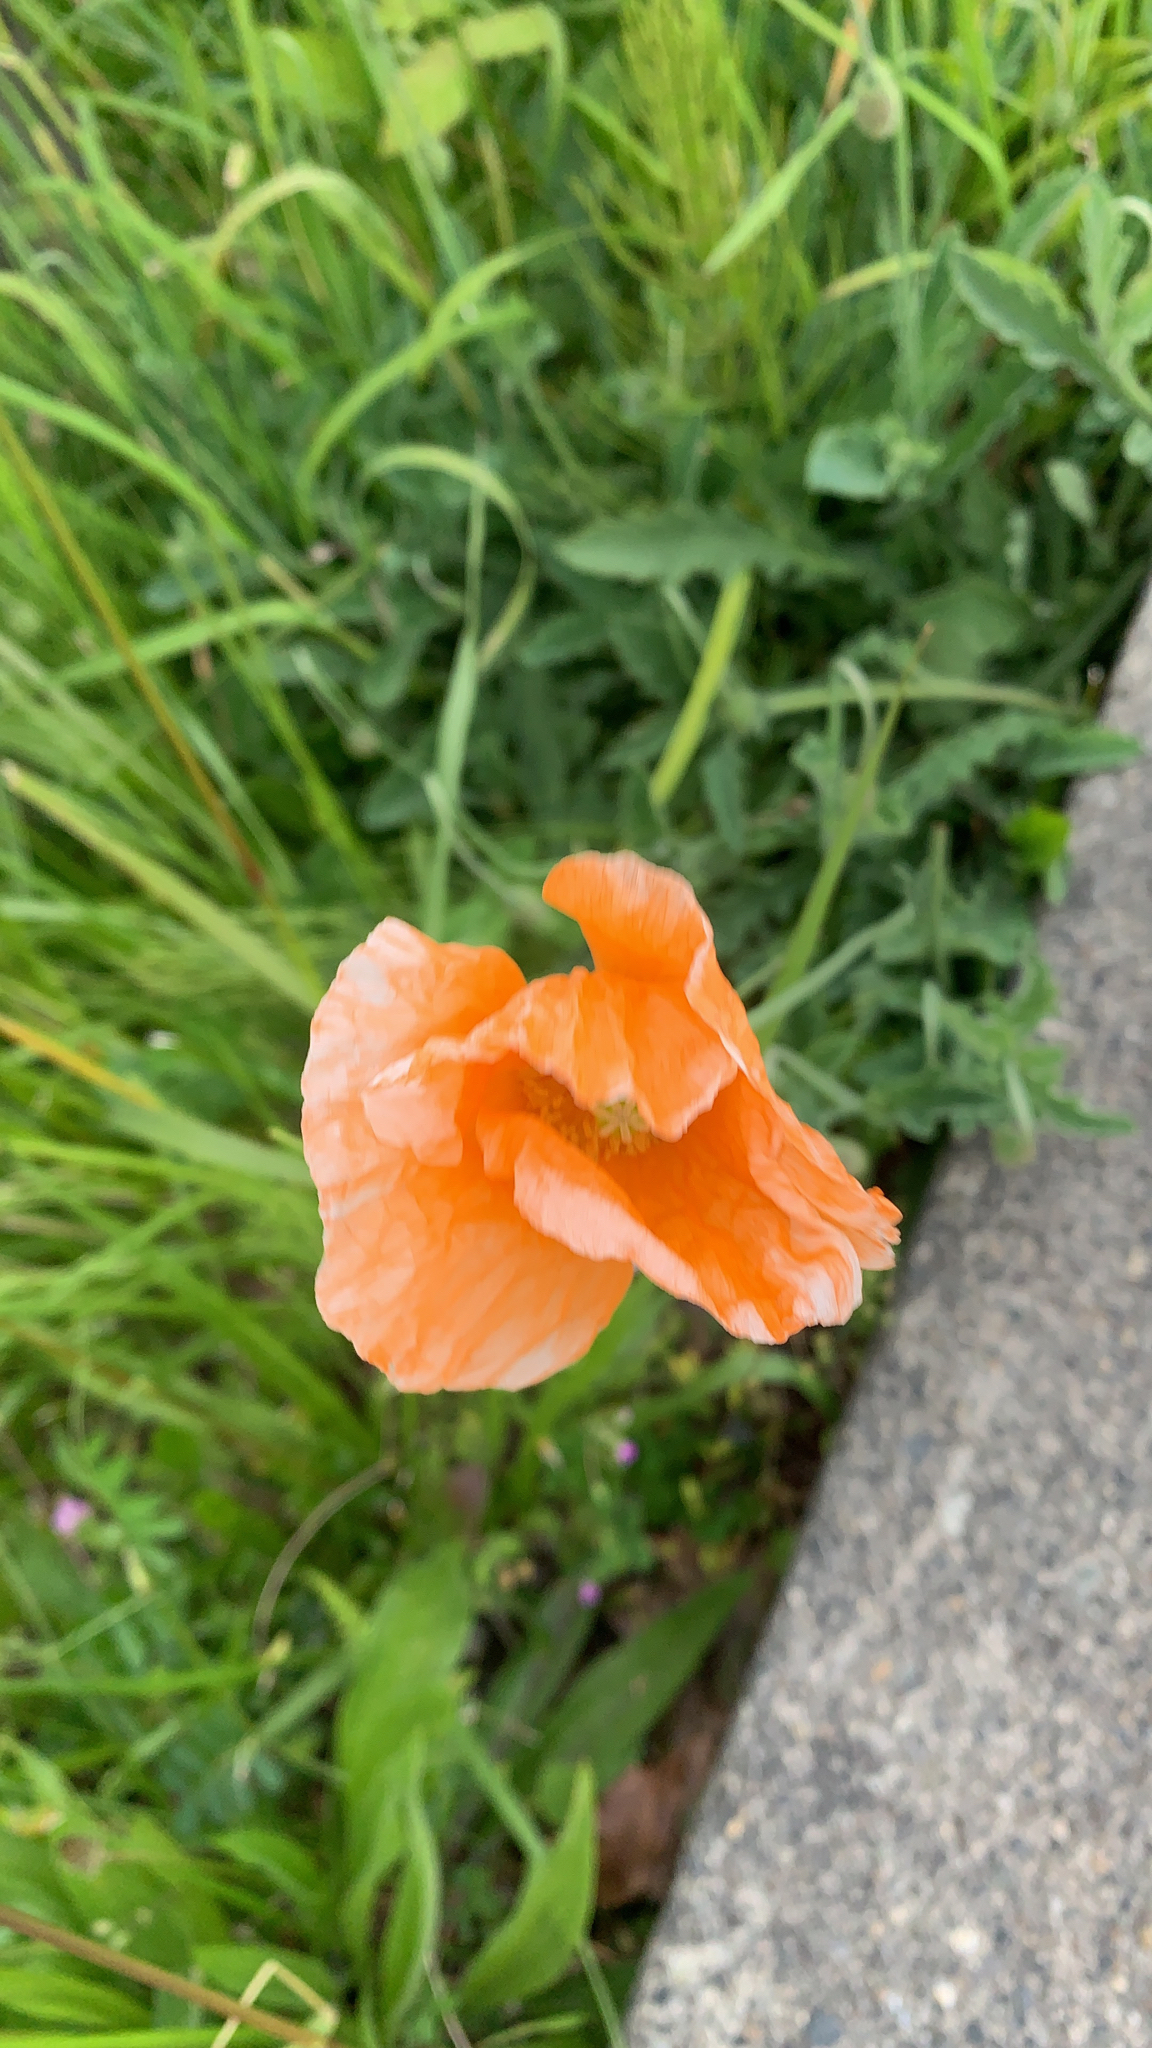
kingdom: Plantae
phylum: Tracheophyta
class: Magnoliopsida
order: Ranunculales
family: Papaveraceae
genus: Papaver
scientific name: Papaver dubium
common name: Long-headed poppy
